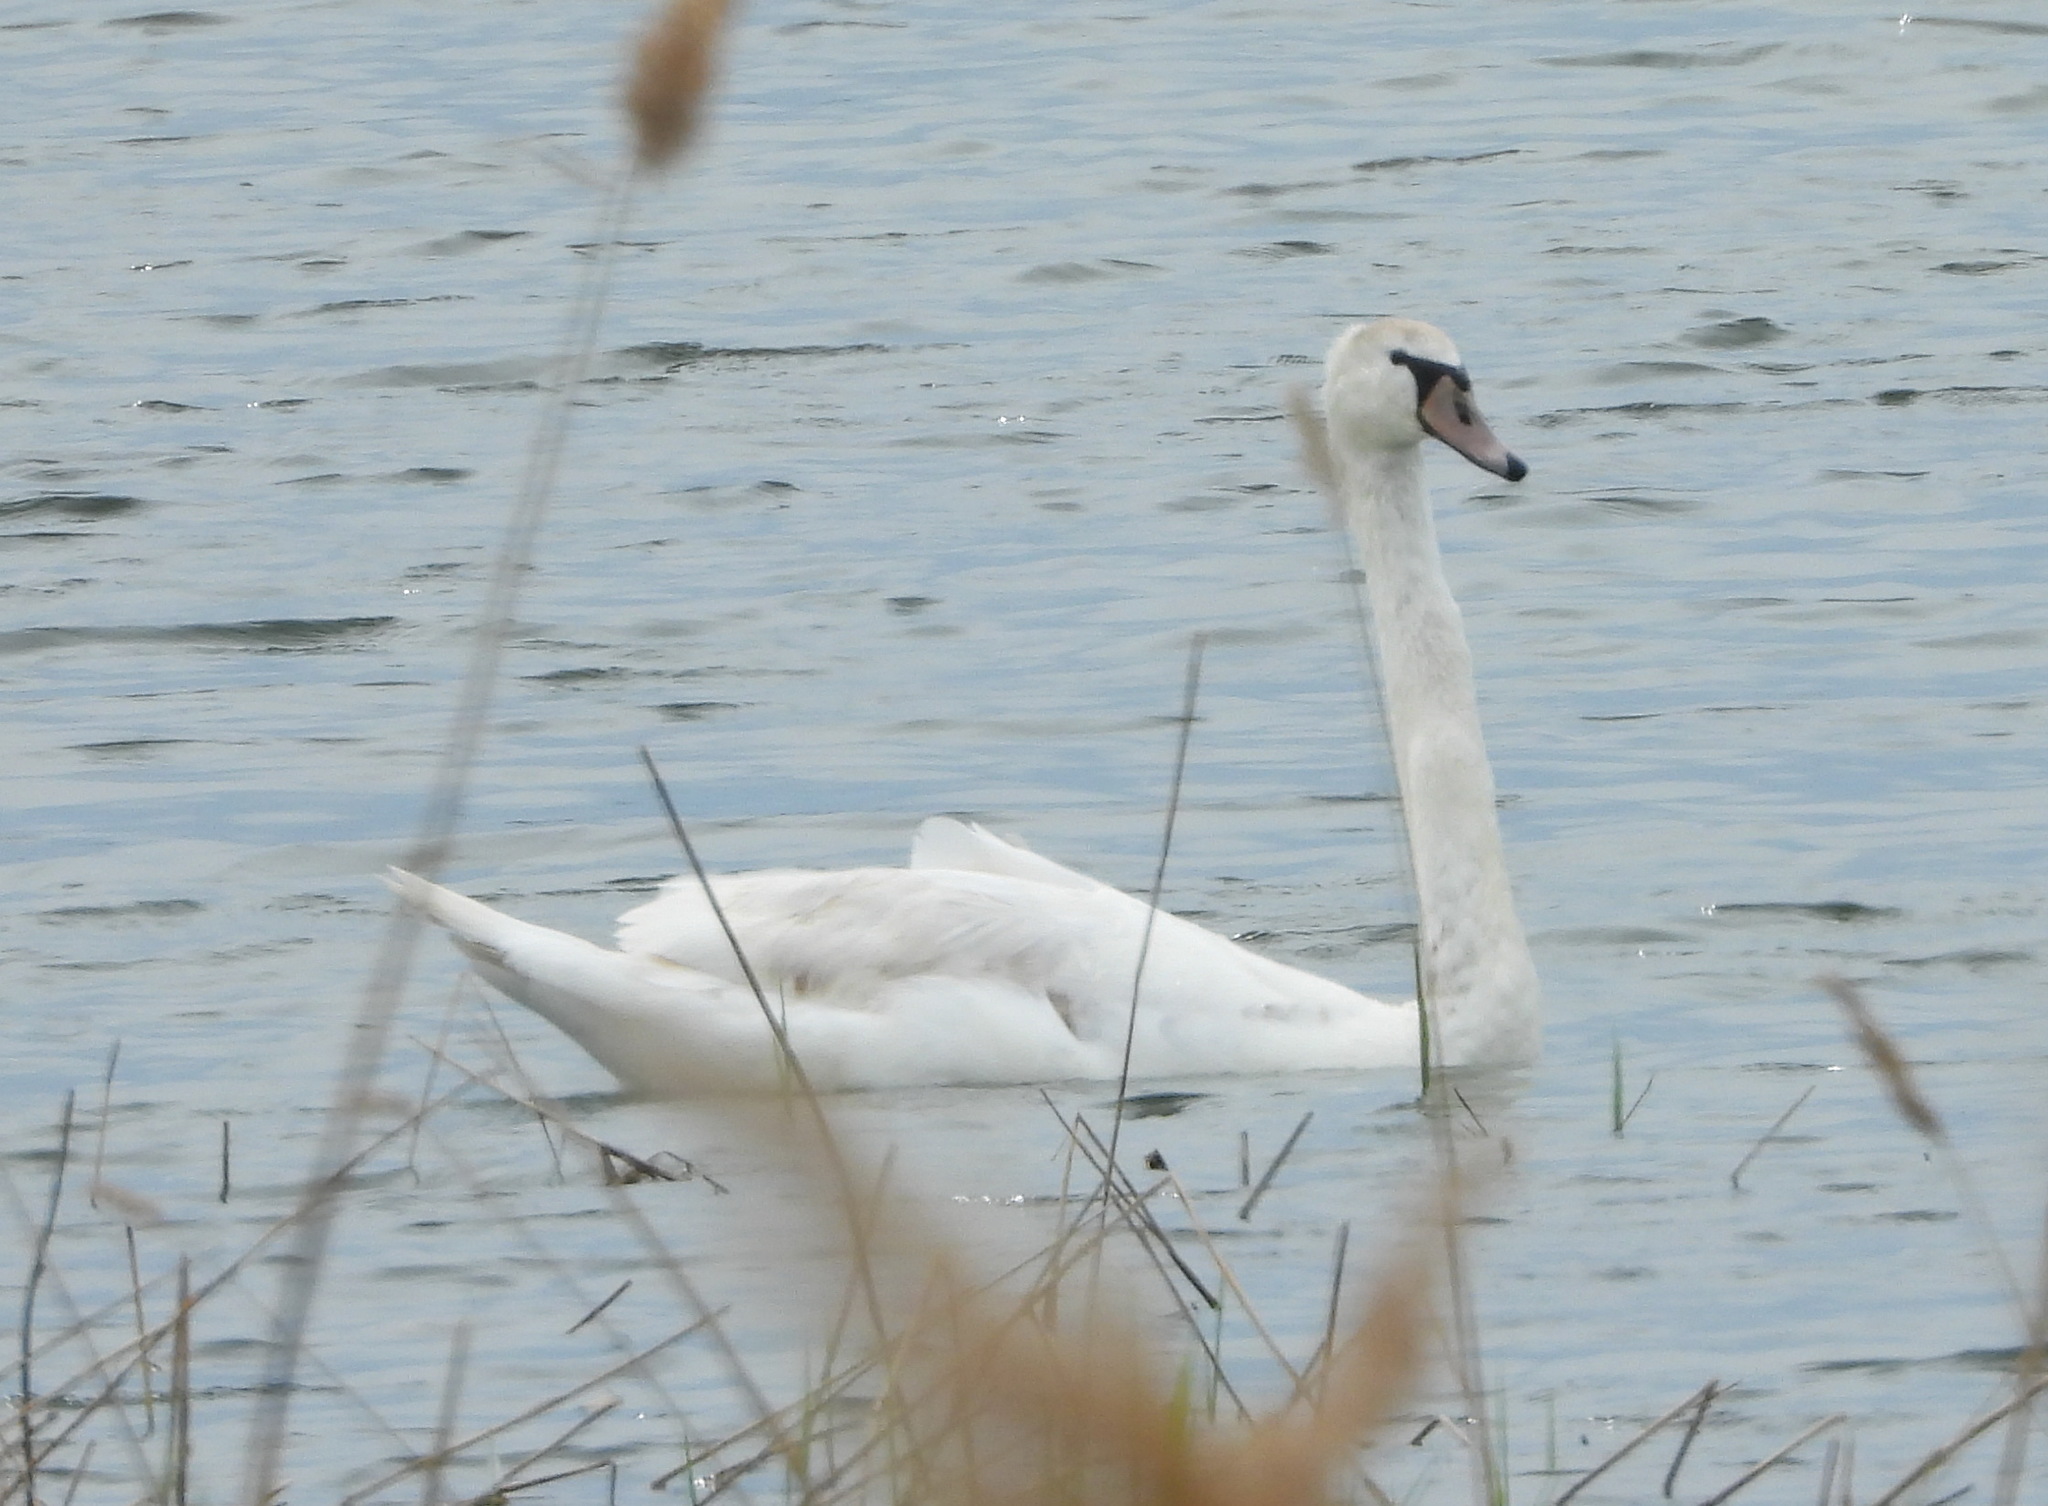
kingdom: Animalia
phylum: Chordata
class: Aves
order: Anseriformes
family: Anatidae
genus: Cygnus
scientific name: Cygnus olor
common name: Mute swan
